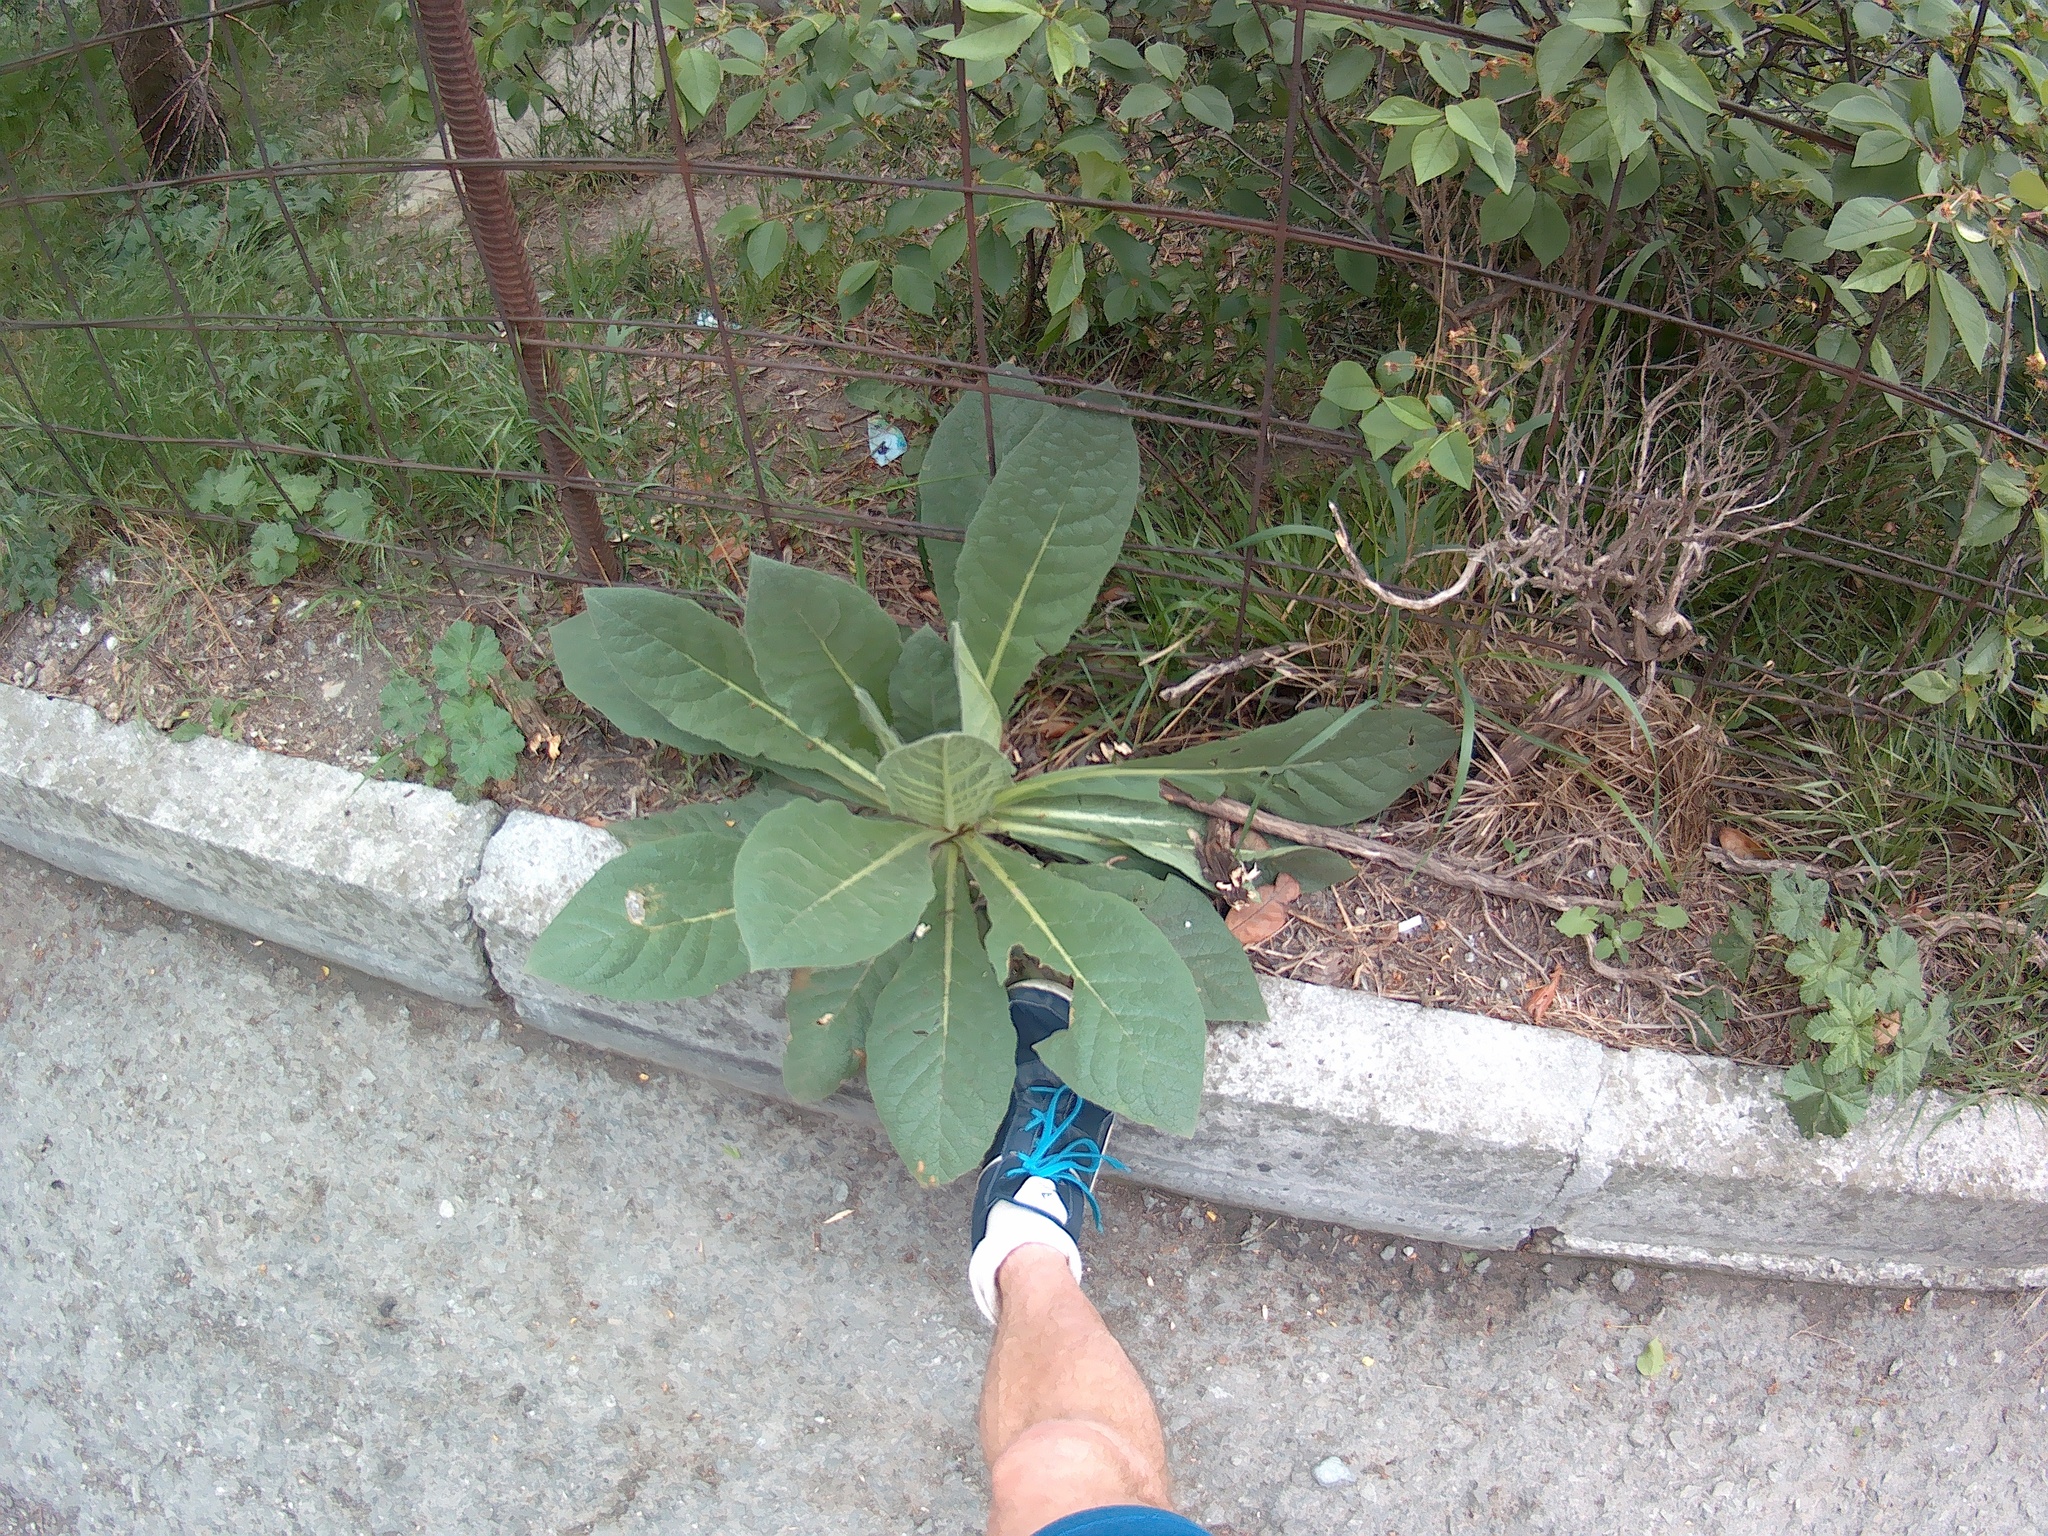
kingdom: Plantae
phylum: Tracheophyta
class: Magnoliopsida
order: Lamiales
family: Scrophulariaceae
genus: Verbascum
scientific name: Verbascum densiflorum
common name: Dense-flowered mullein
